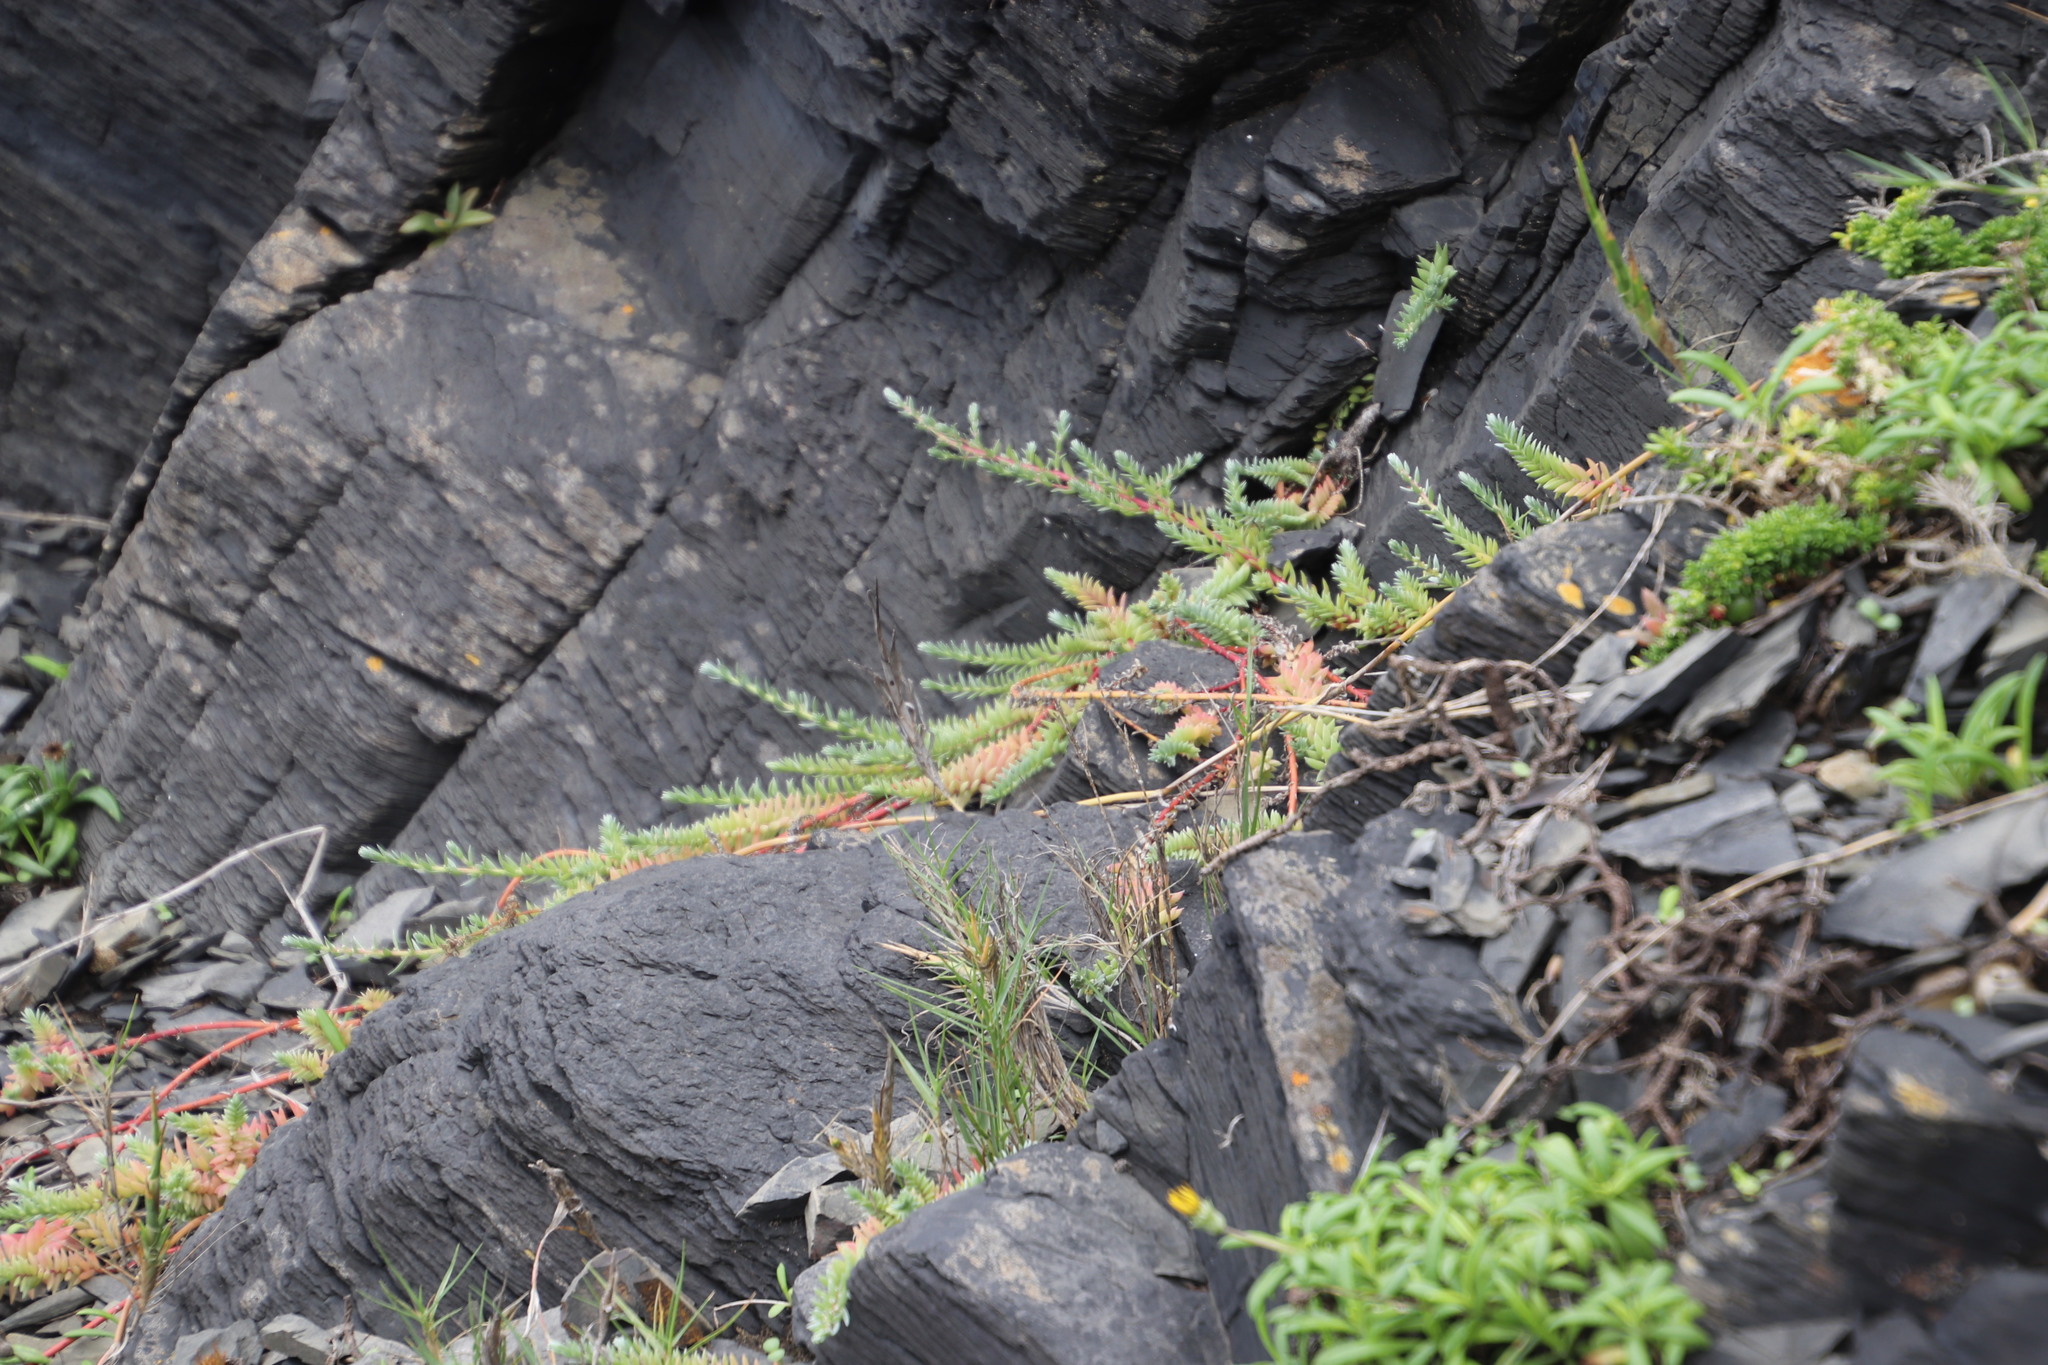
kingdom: Plantae
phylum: Tracheophyta
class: Magnoliopsida
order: Caryophyllales
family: Amaranthaceae
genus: Chenolea
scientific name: Chenolea diffusa
